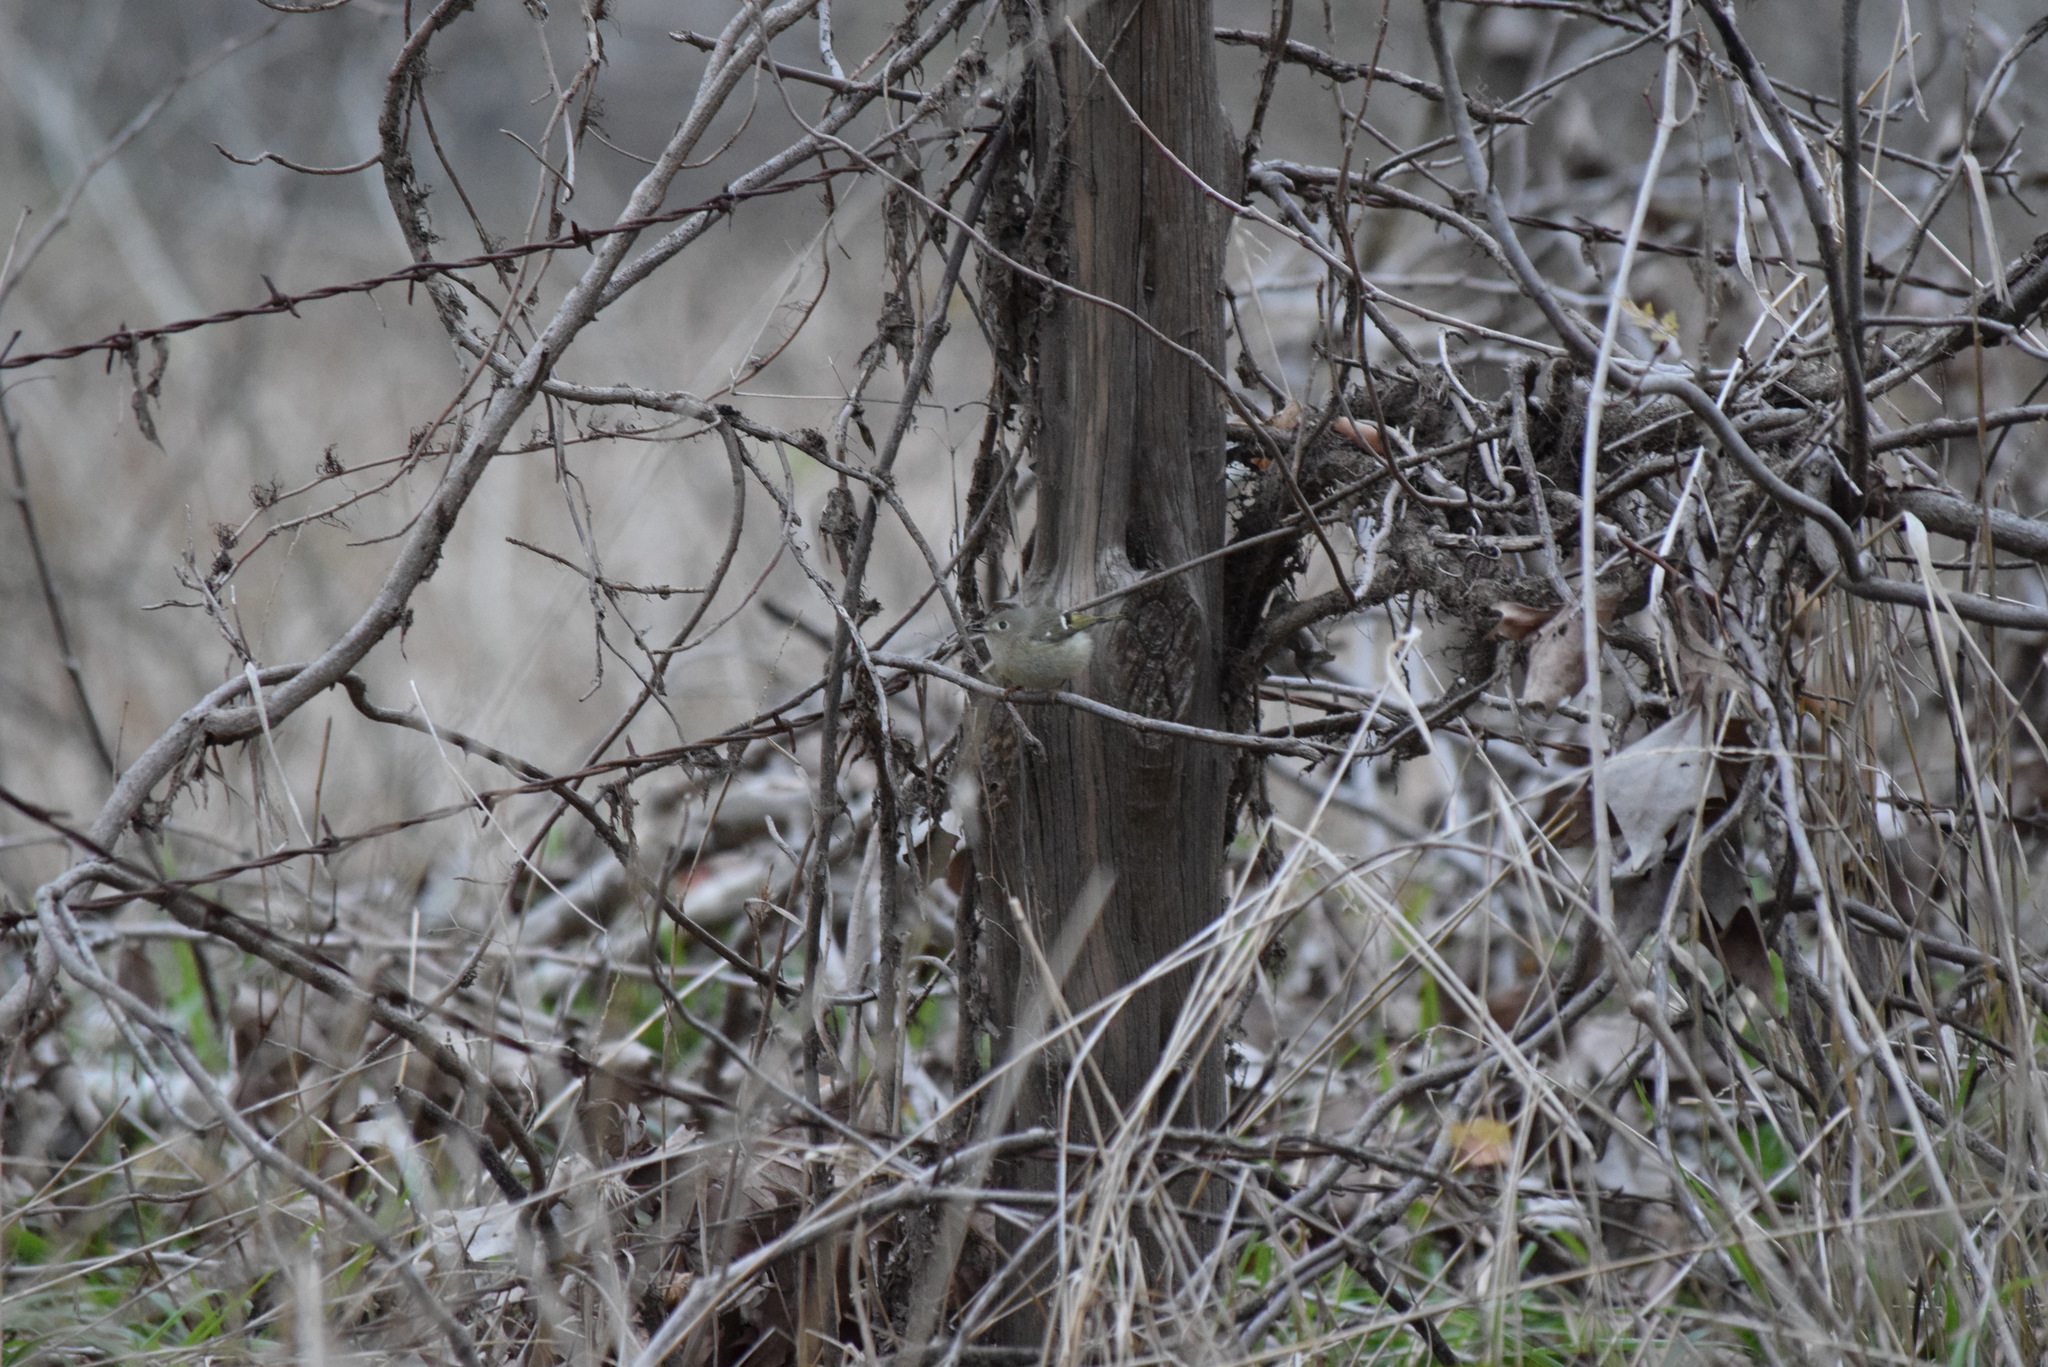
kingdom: Animalia
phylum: Chordata
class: Aves
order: Passeriformes
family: Regulidae
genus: Regulus
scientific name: Regulus calendula
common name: Ruby-crowned kinglet
